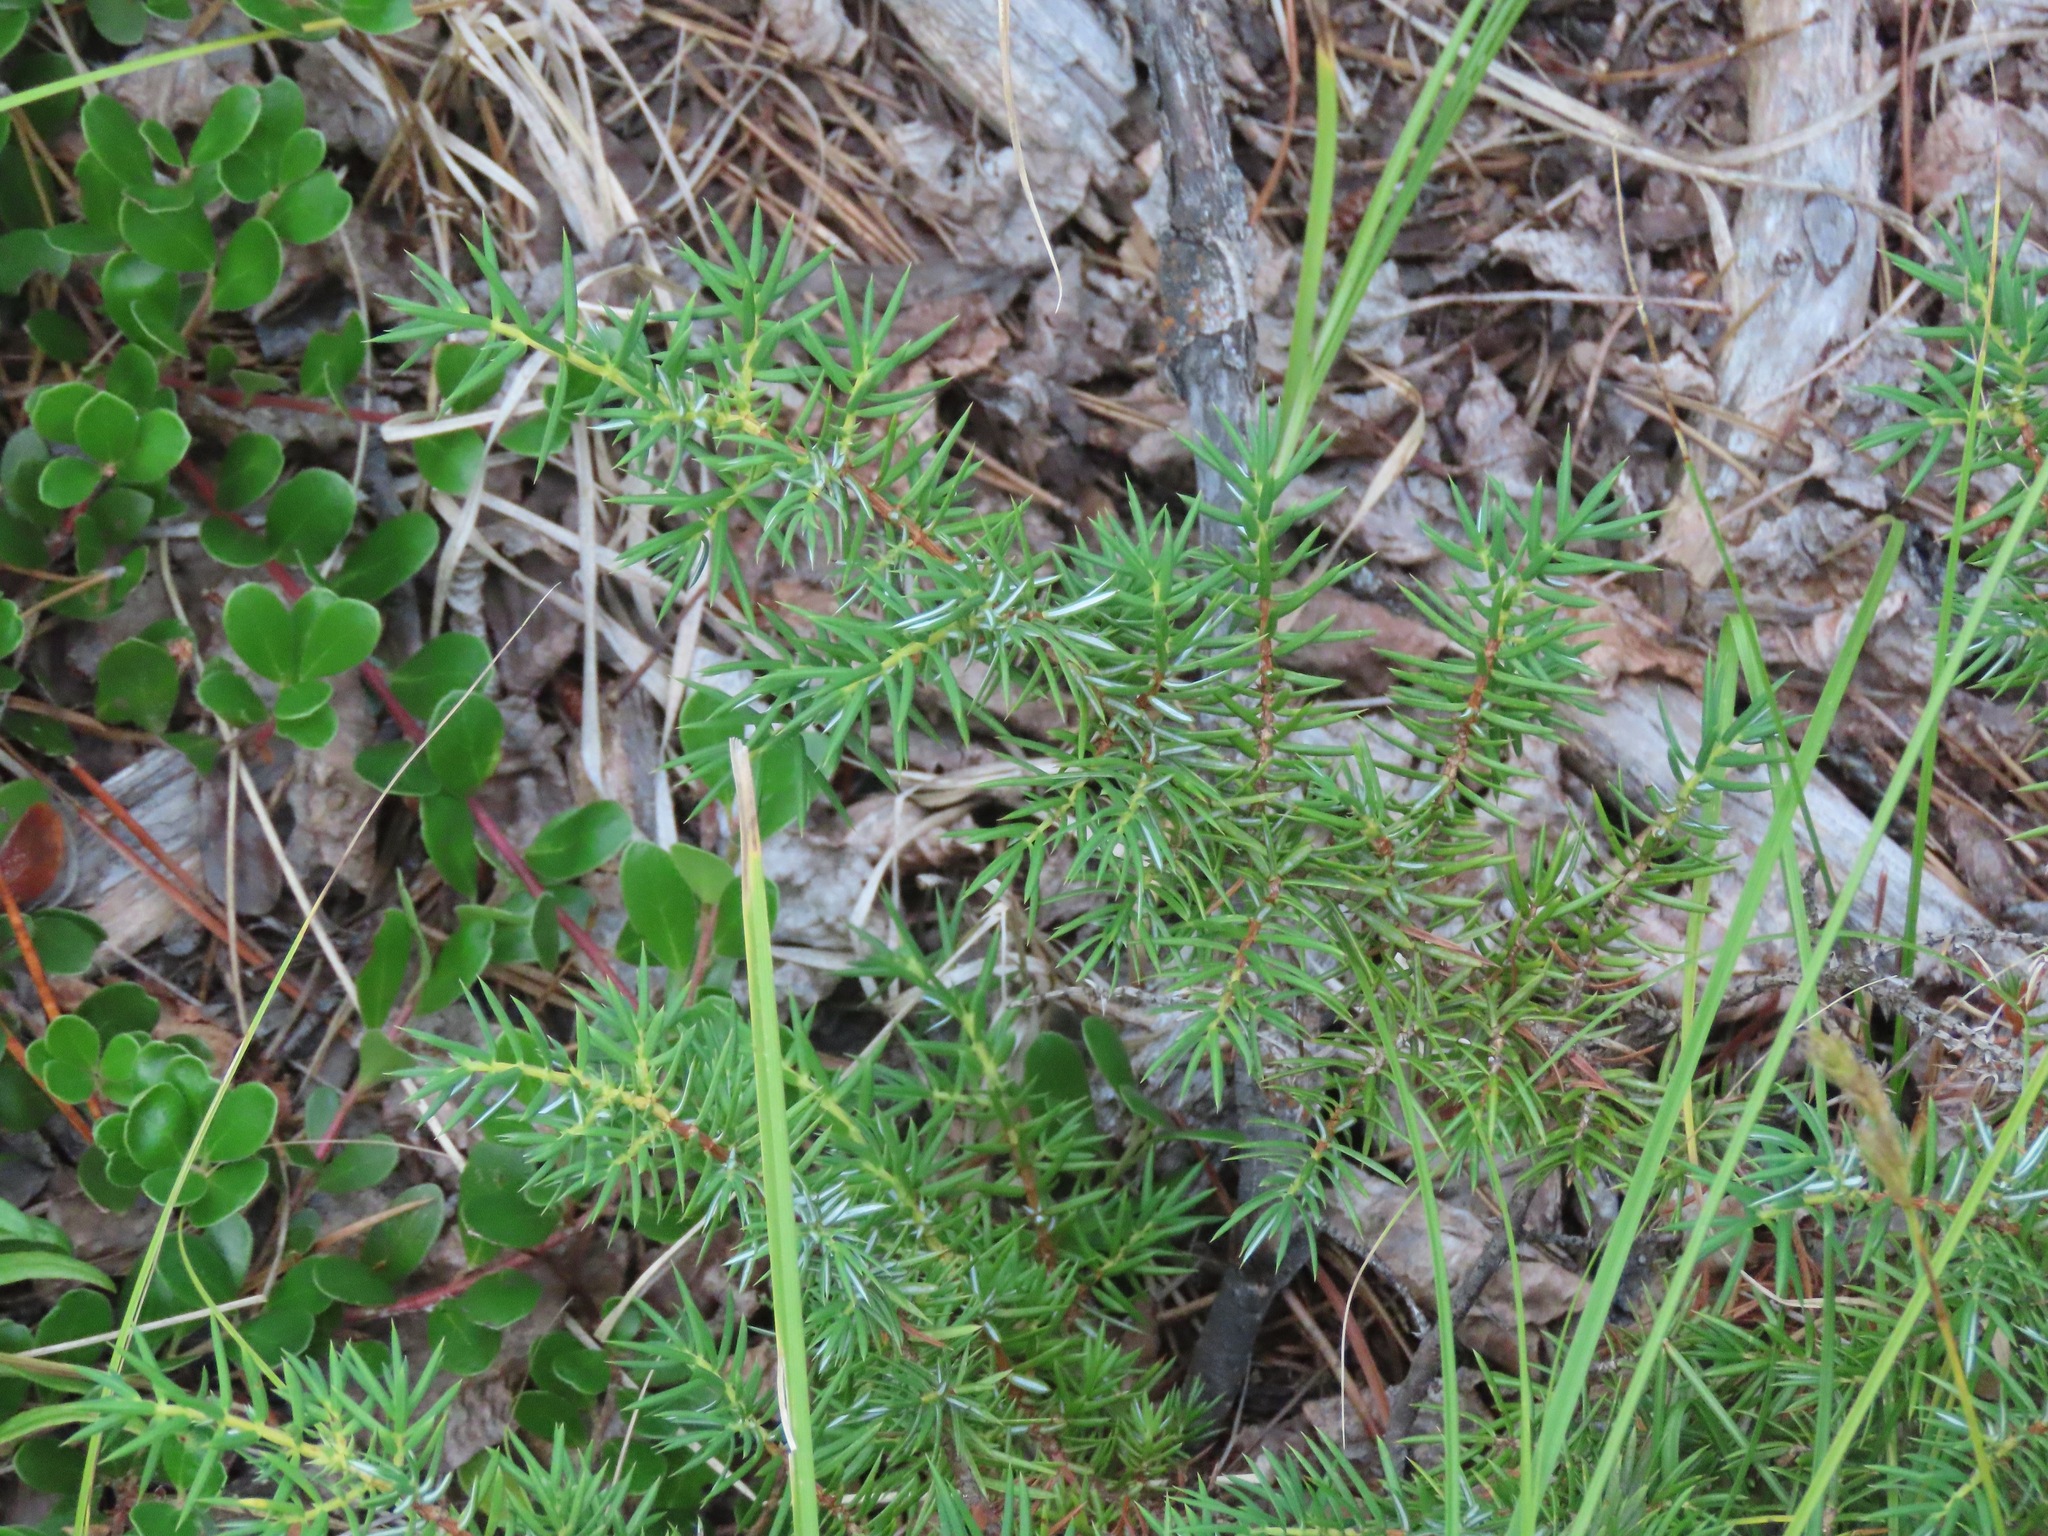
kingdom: Plantae
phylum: Tracheophyta
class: Pinopsida
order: Pinales
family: Cupressaceae
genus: Juniperus
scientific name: Juniperus communis
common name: Common juniper
